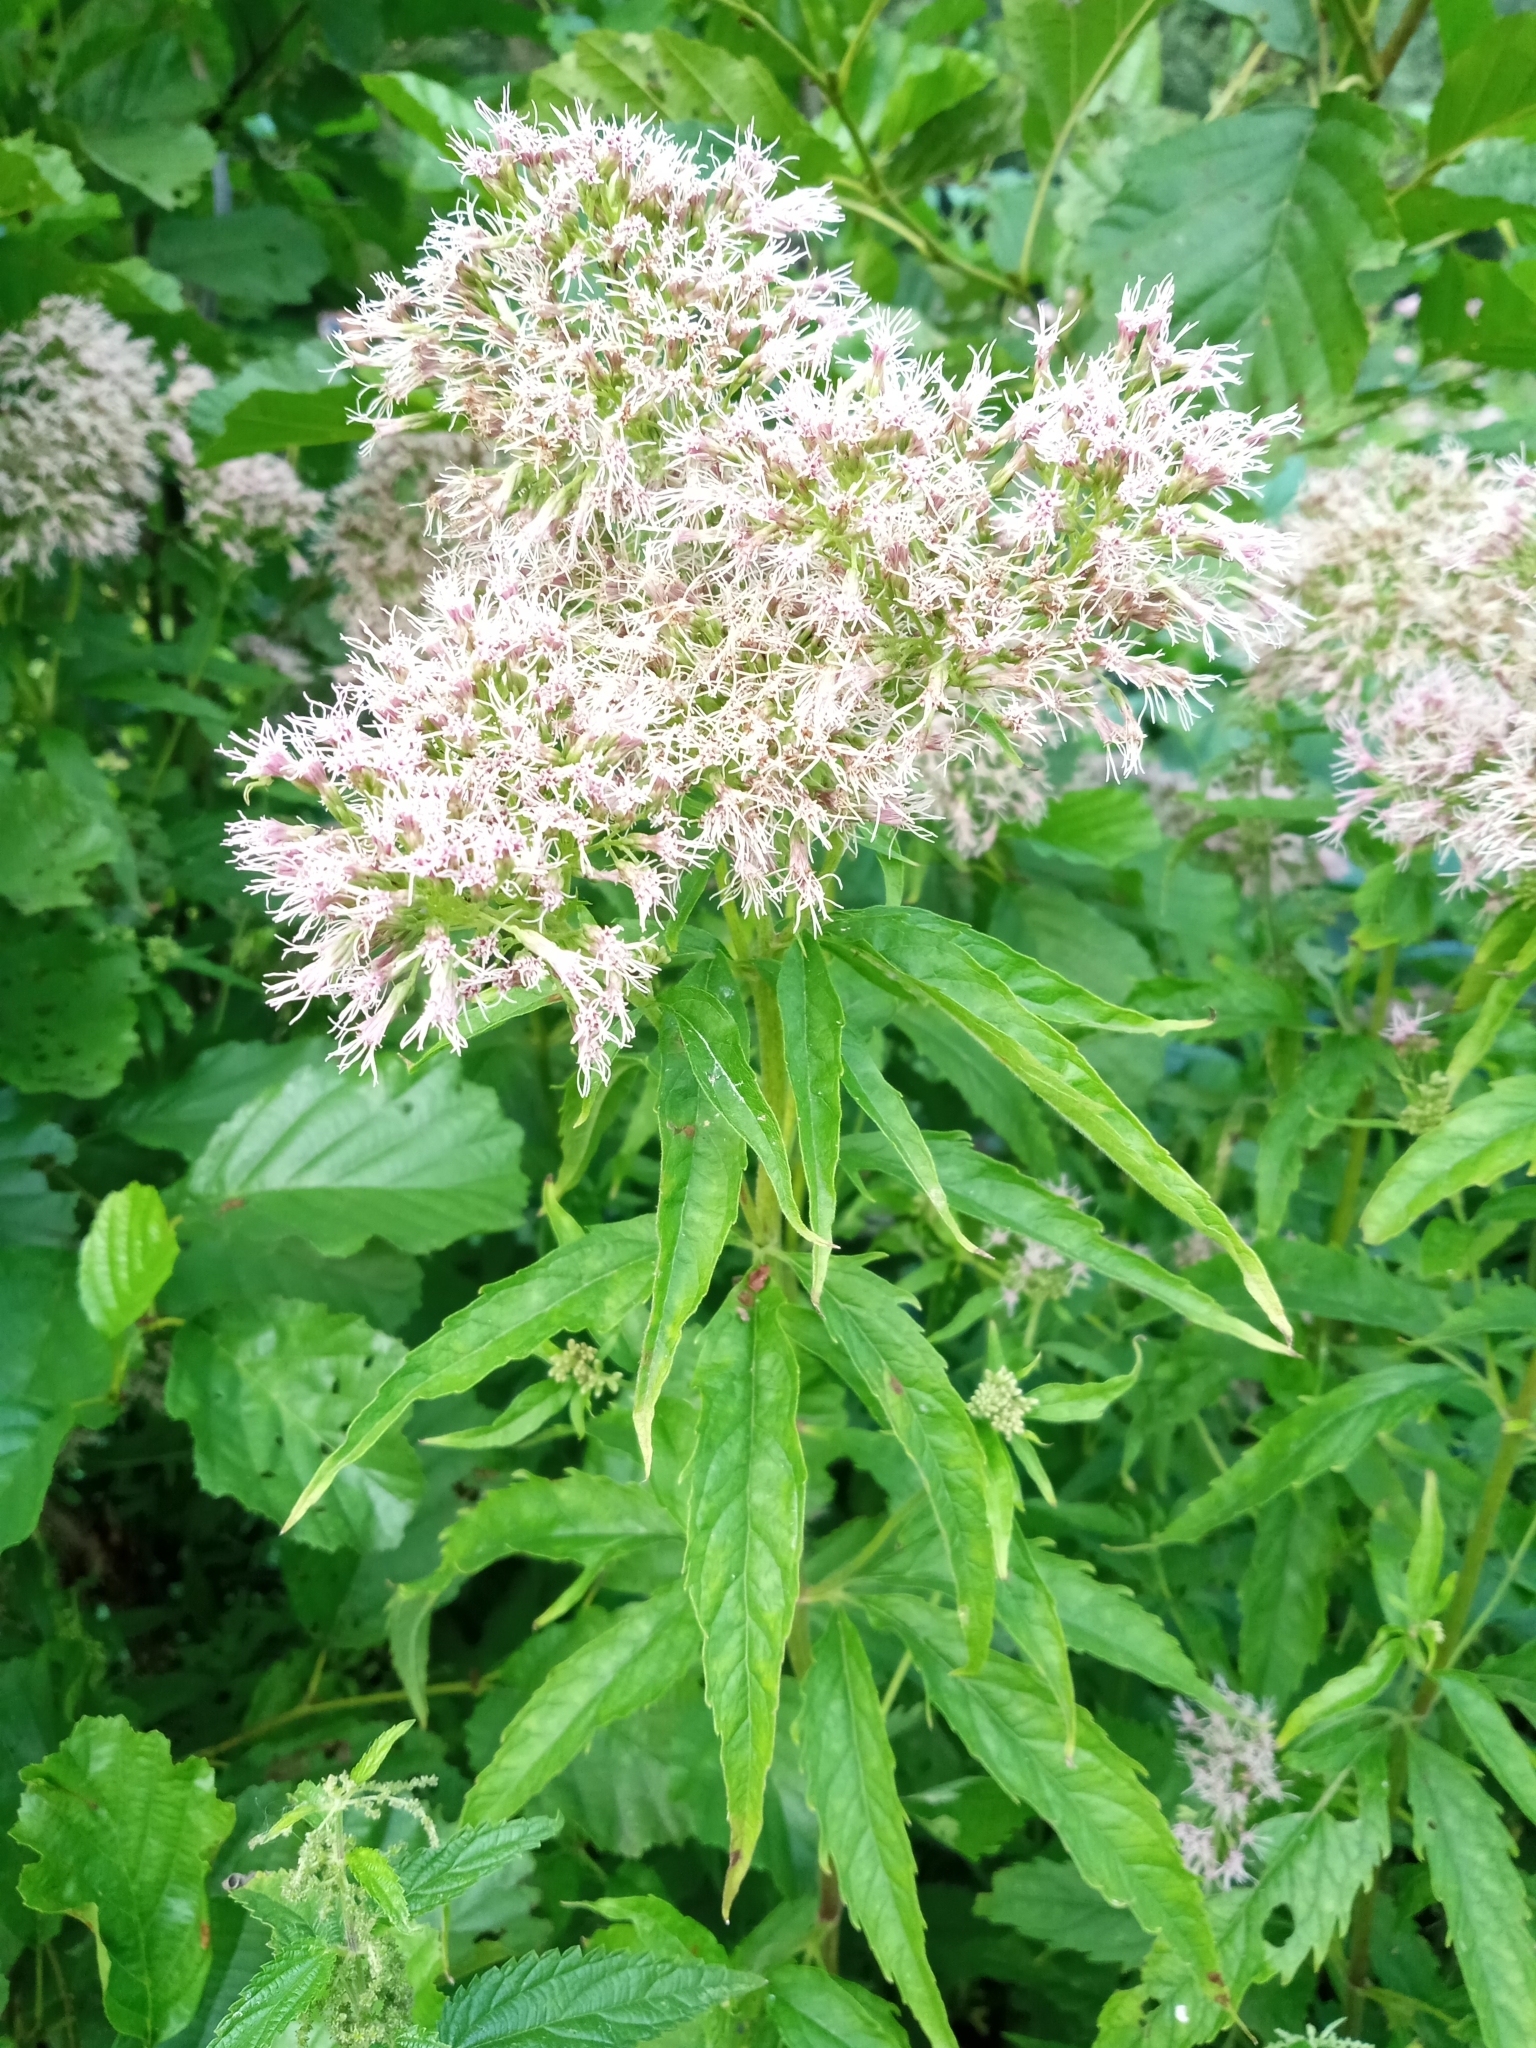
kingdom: Plantae
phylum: Tracheophyta
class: Magnoliopsida
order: Asterales
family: Asteraceae
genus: Eupatorium
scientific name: Eupatorium cannabinum
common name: Hemp-agrimony
